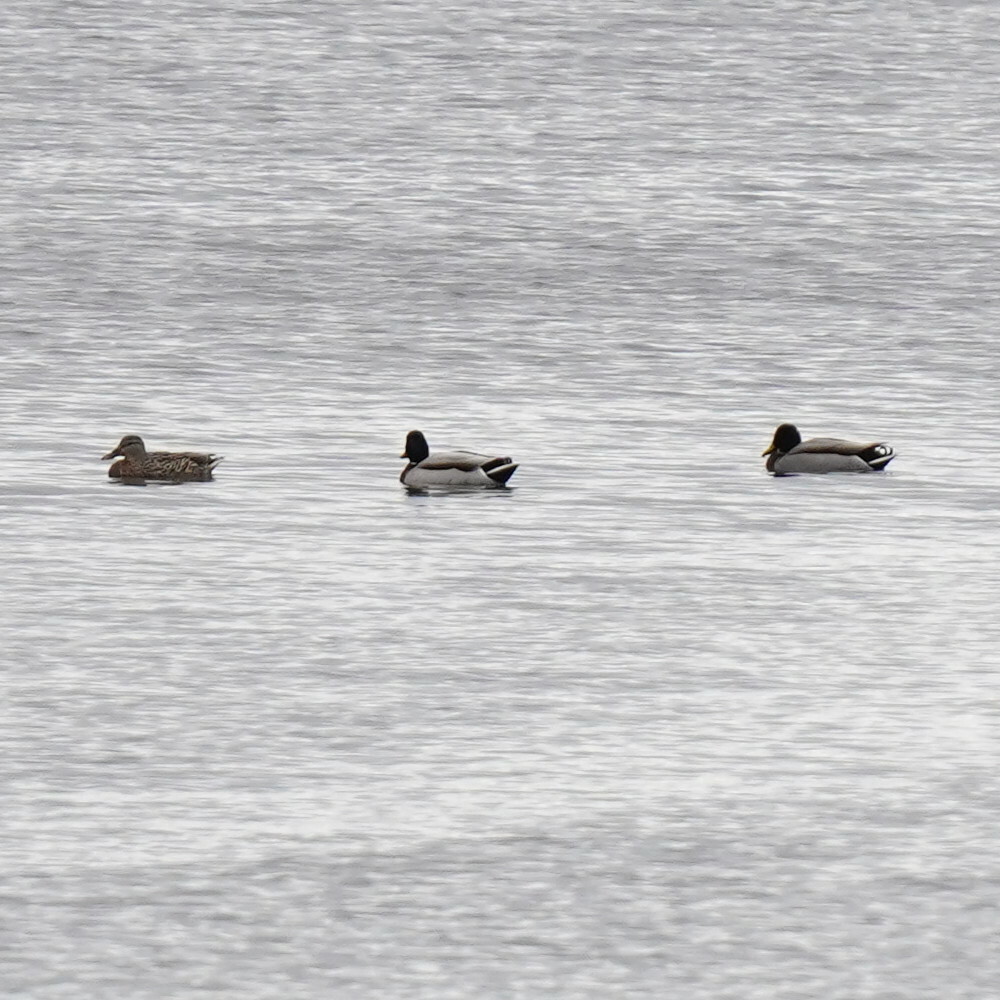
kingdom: Animalia
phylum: Chordata
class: Aves
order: Anseriformes
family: Anatidae
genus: Anas
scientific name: Anas platyrhynchos
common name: Mallard
